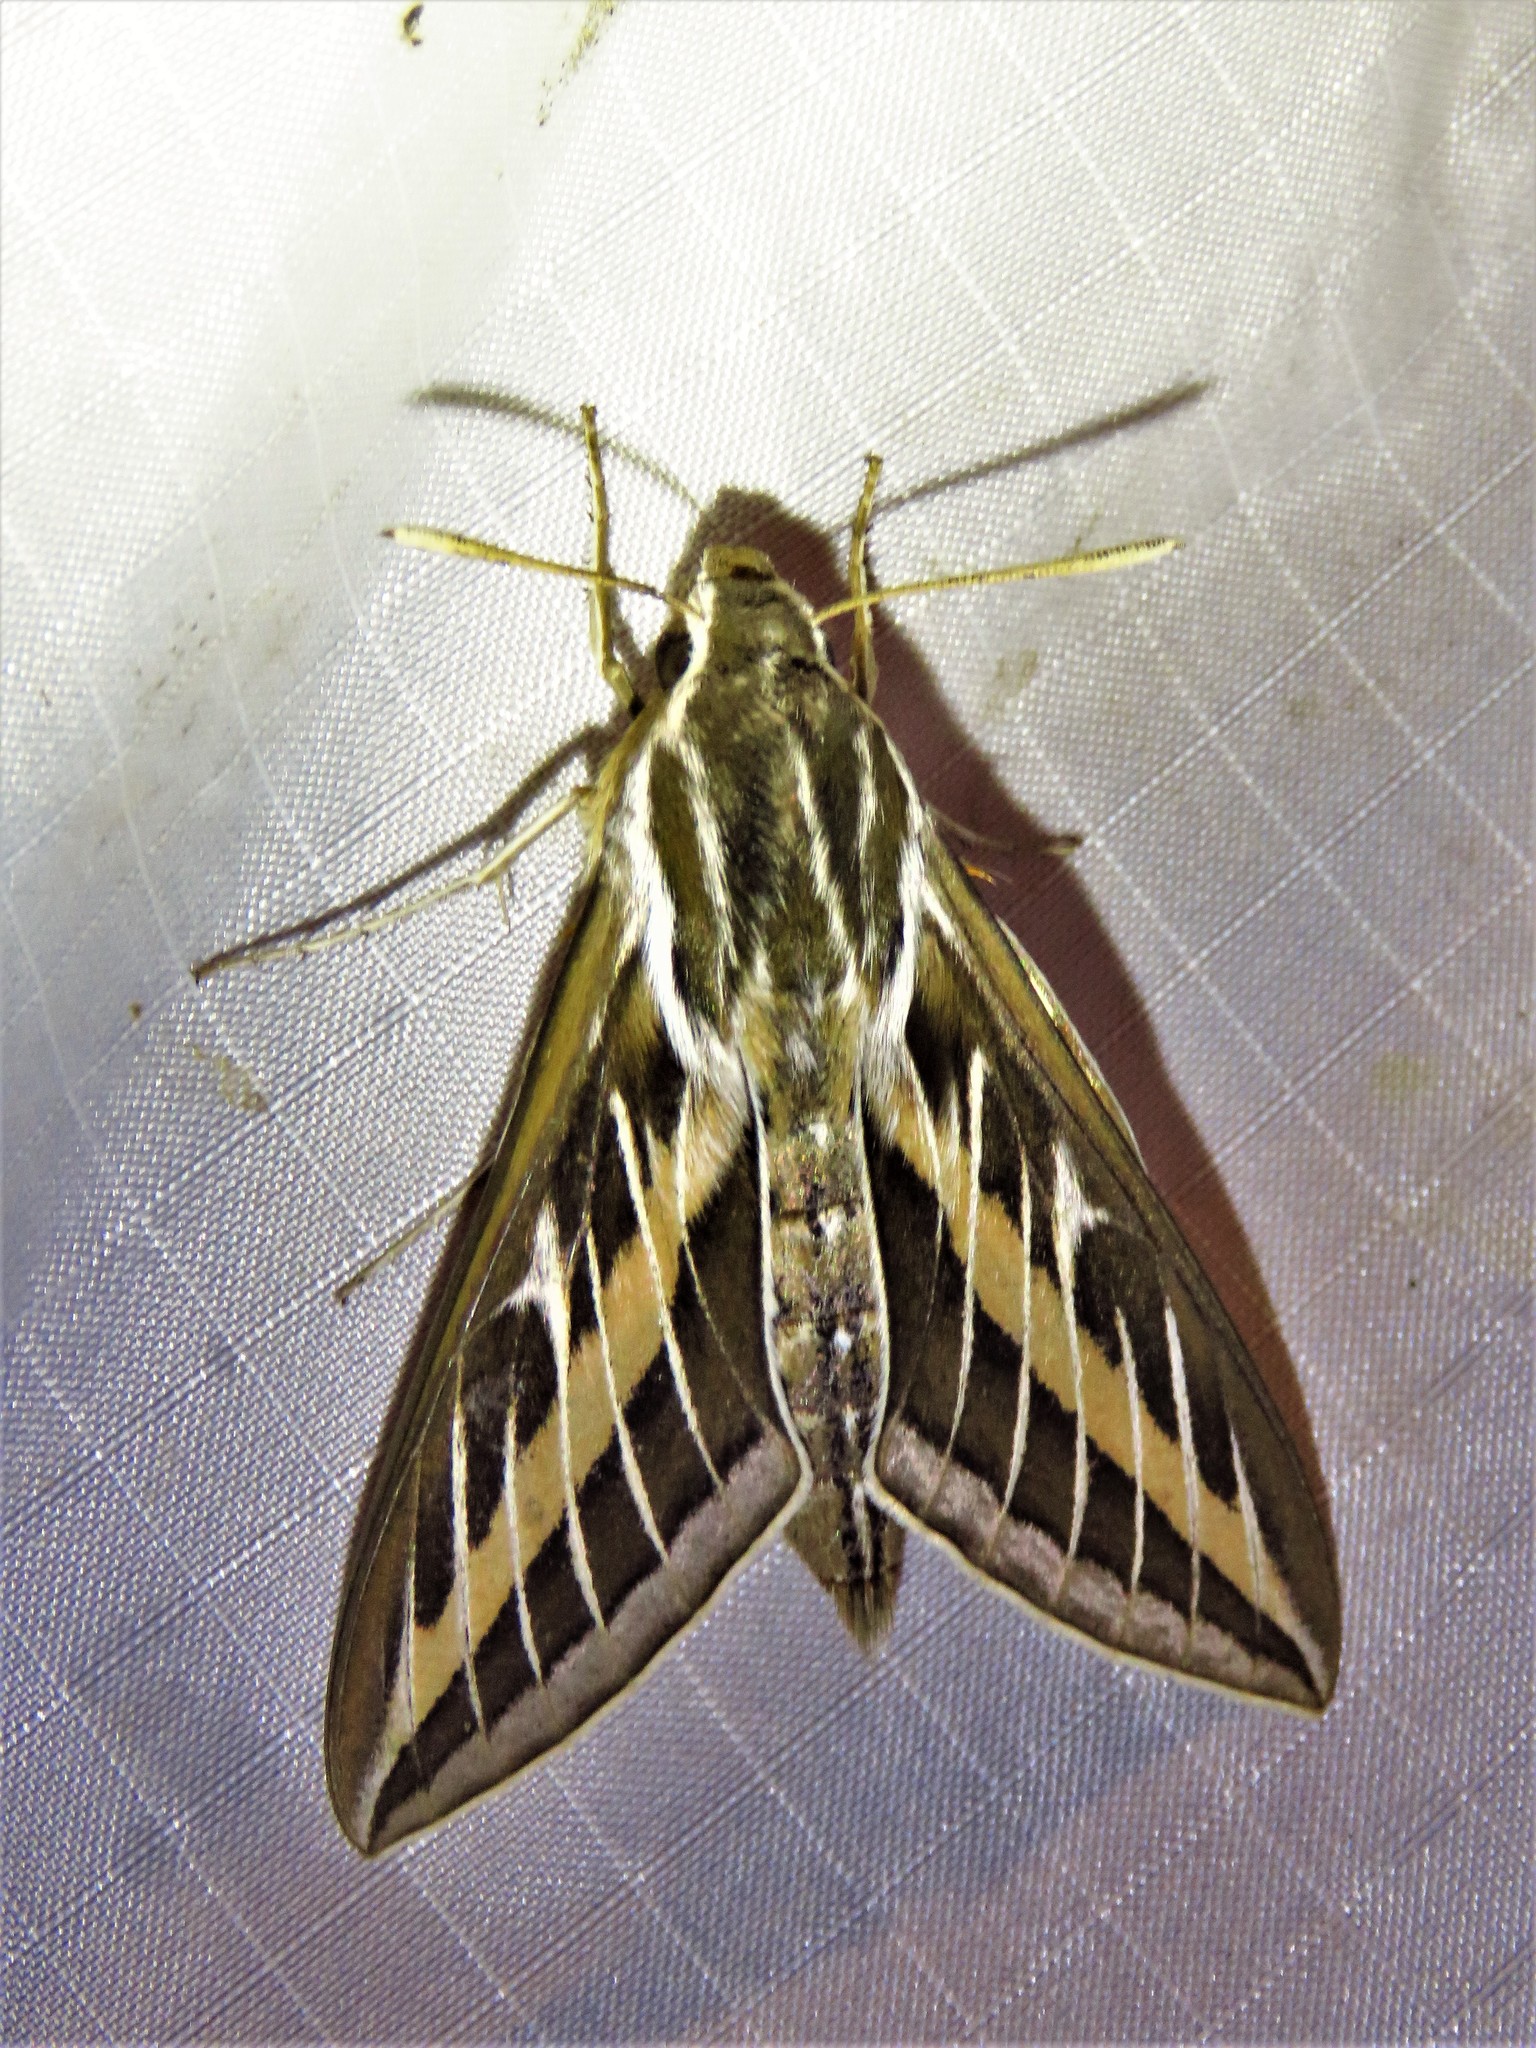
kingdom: Animalia
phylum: Arthropoda
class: Insecta
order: Lepidoptera
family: Sphingidae
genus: Hyles
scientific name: Hyles lineata
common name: White-lined sphinx
